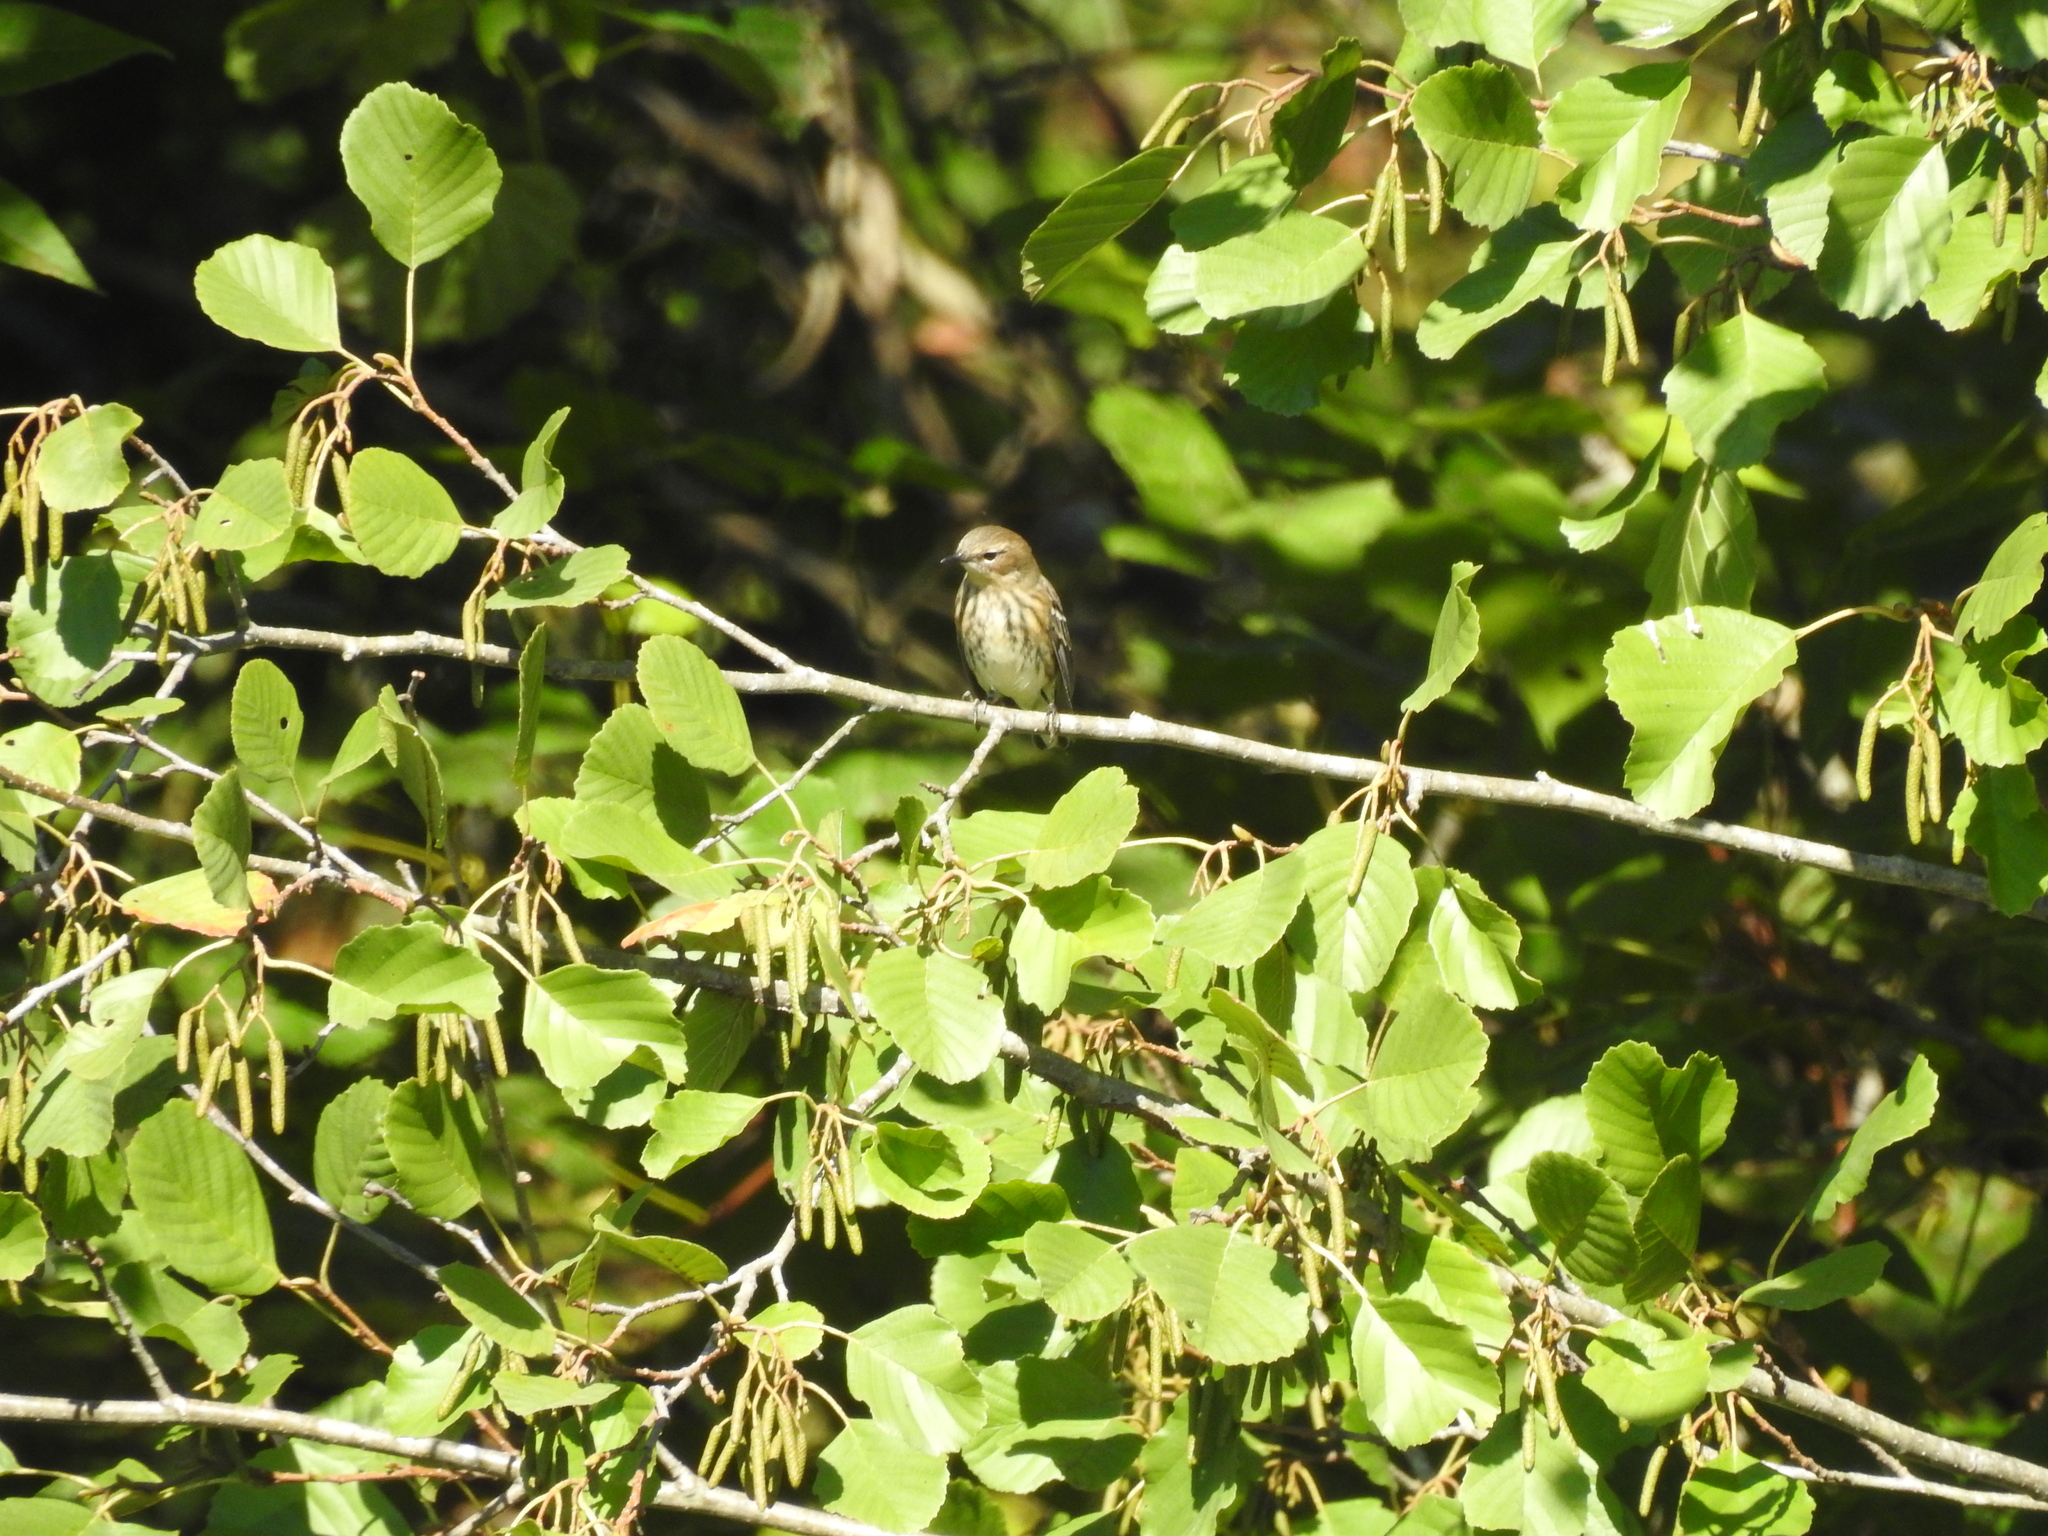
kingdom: Animalia
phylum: Chordata
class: Aves
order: Passeriformes
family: Parulidae
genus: Setophaga
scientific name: Setophaga coronata
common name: Myrtle warbler
